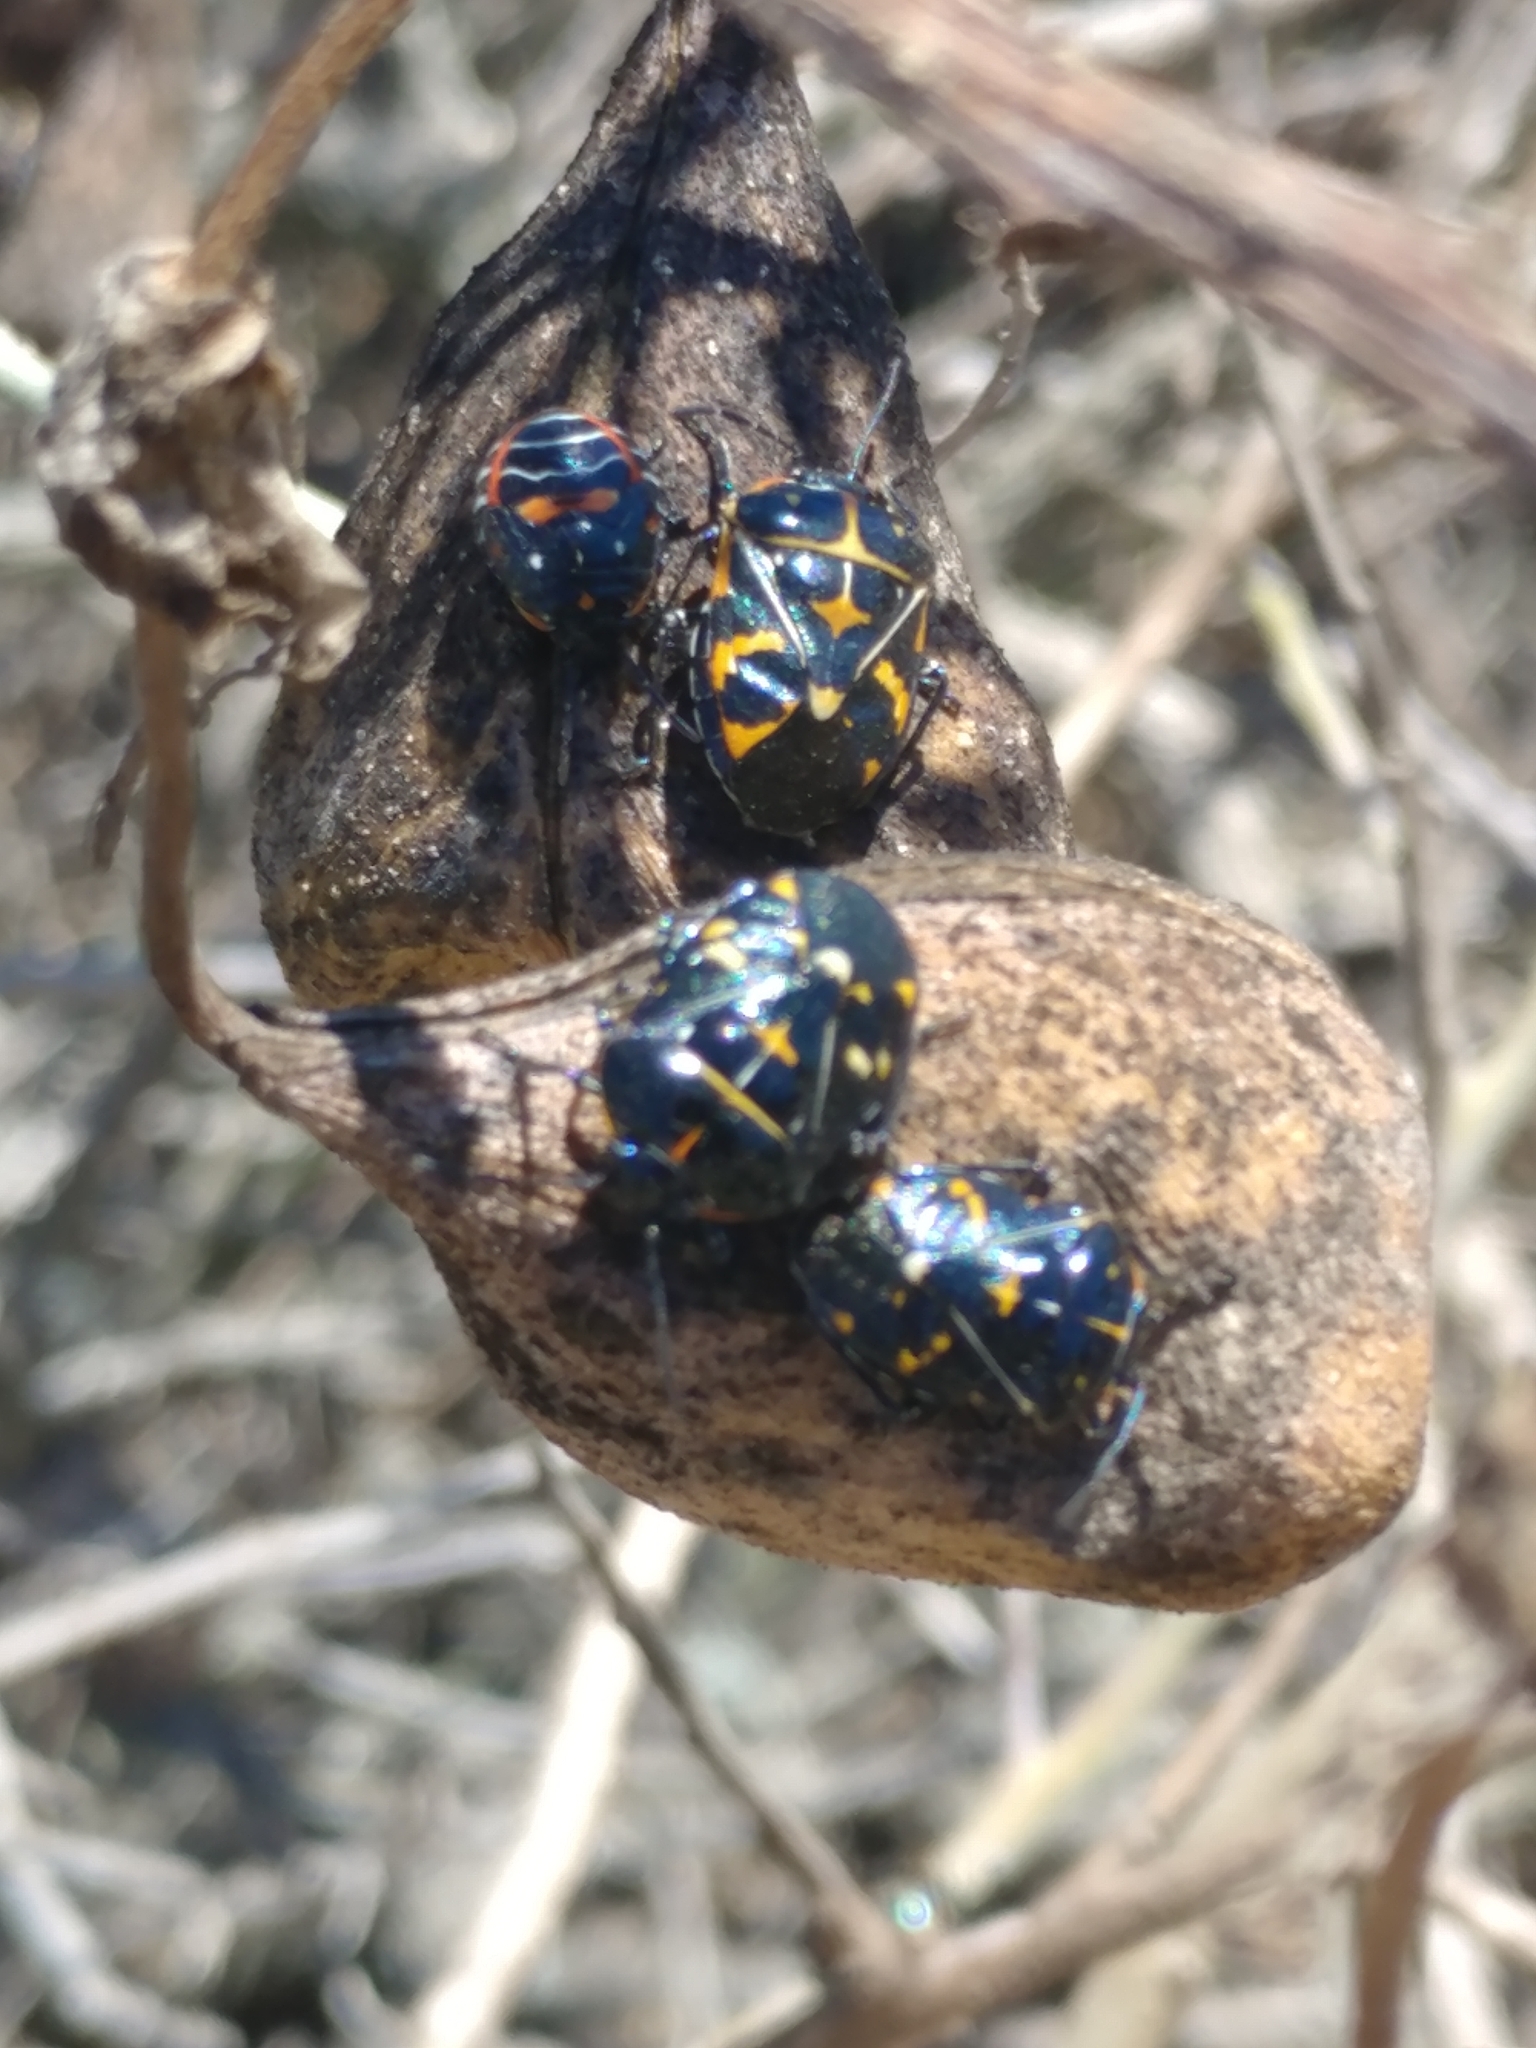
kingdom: Animalia
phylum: Arthropoda
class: Insecta
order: Hemiptera
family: Pentatomidae
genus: Murgantia
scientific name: Murgantia histrionica
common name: Harlequin bug
